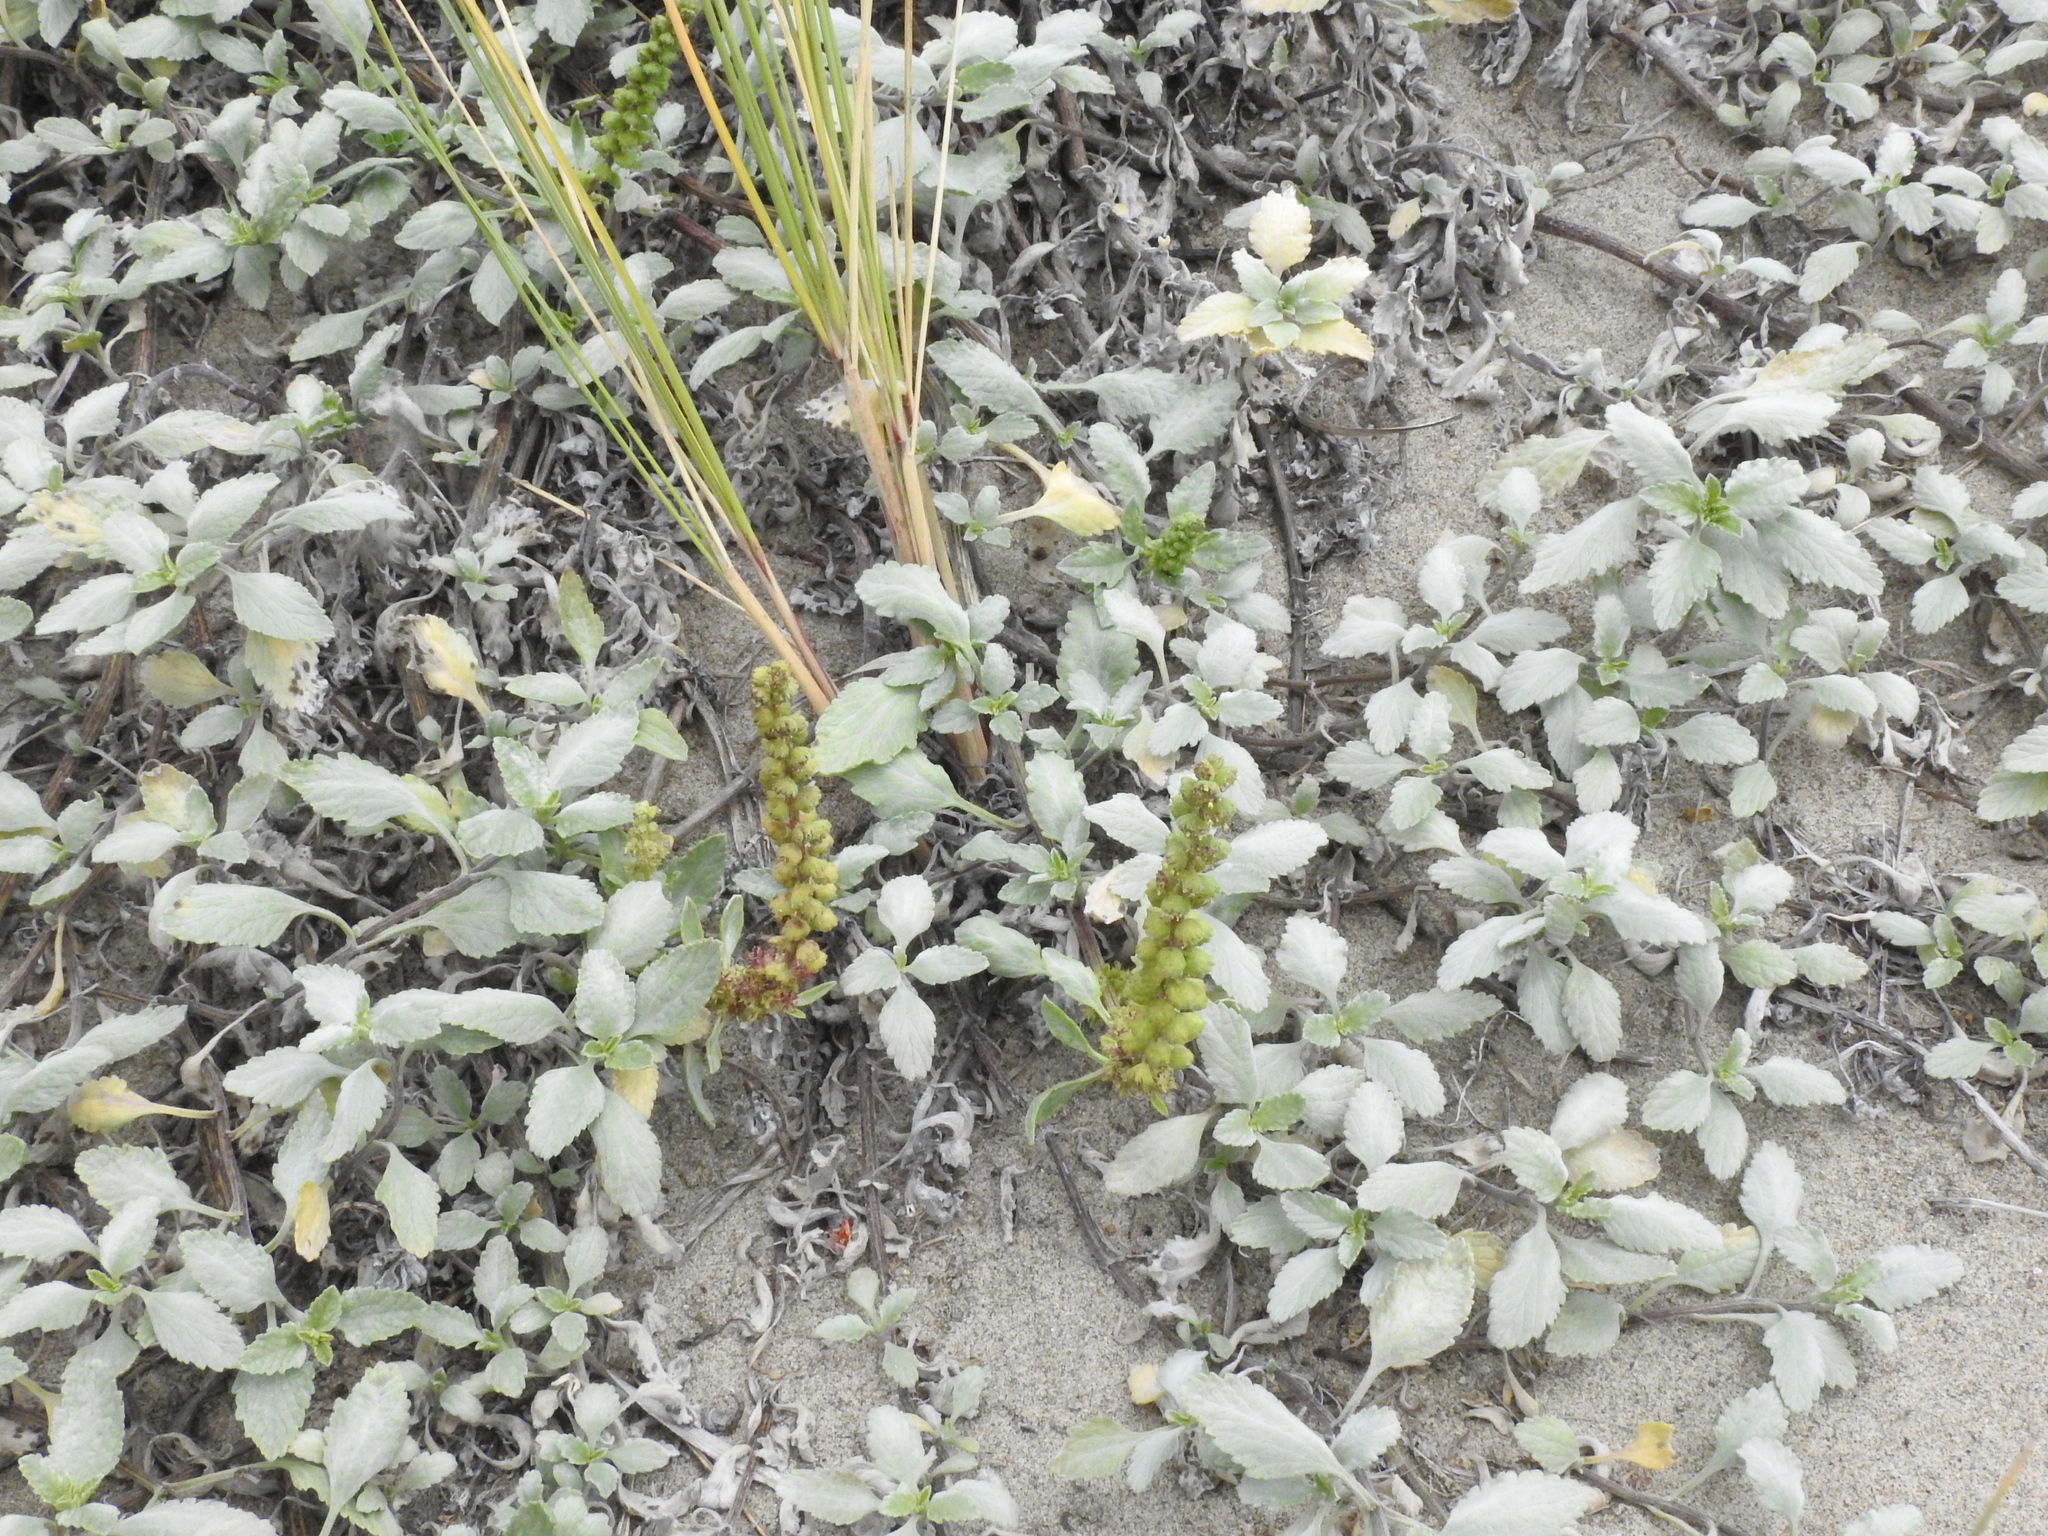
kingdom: Plantae
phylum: Tracheophyta
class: Magnoliopsida
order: Asterales
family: Asteraceae
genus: Ambrosia
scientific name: Ambrosia chamissonis
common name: Beachbur
